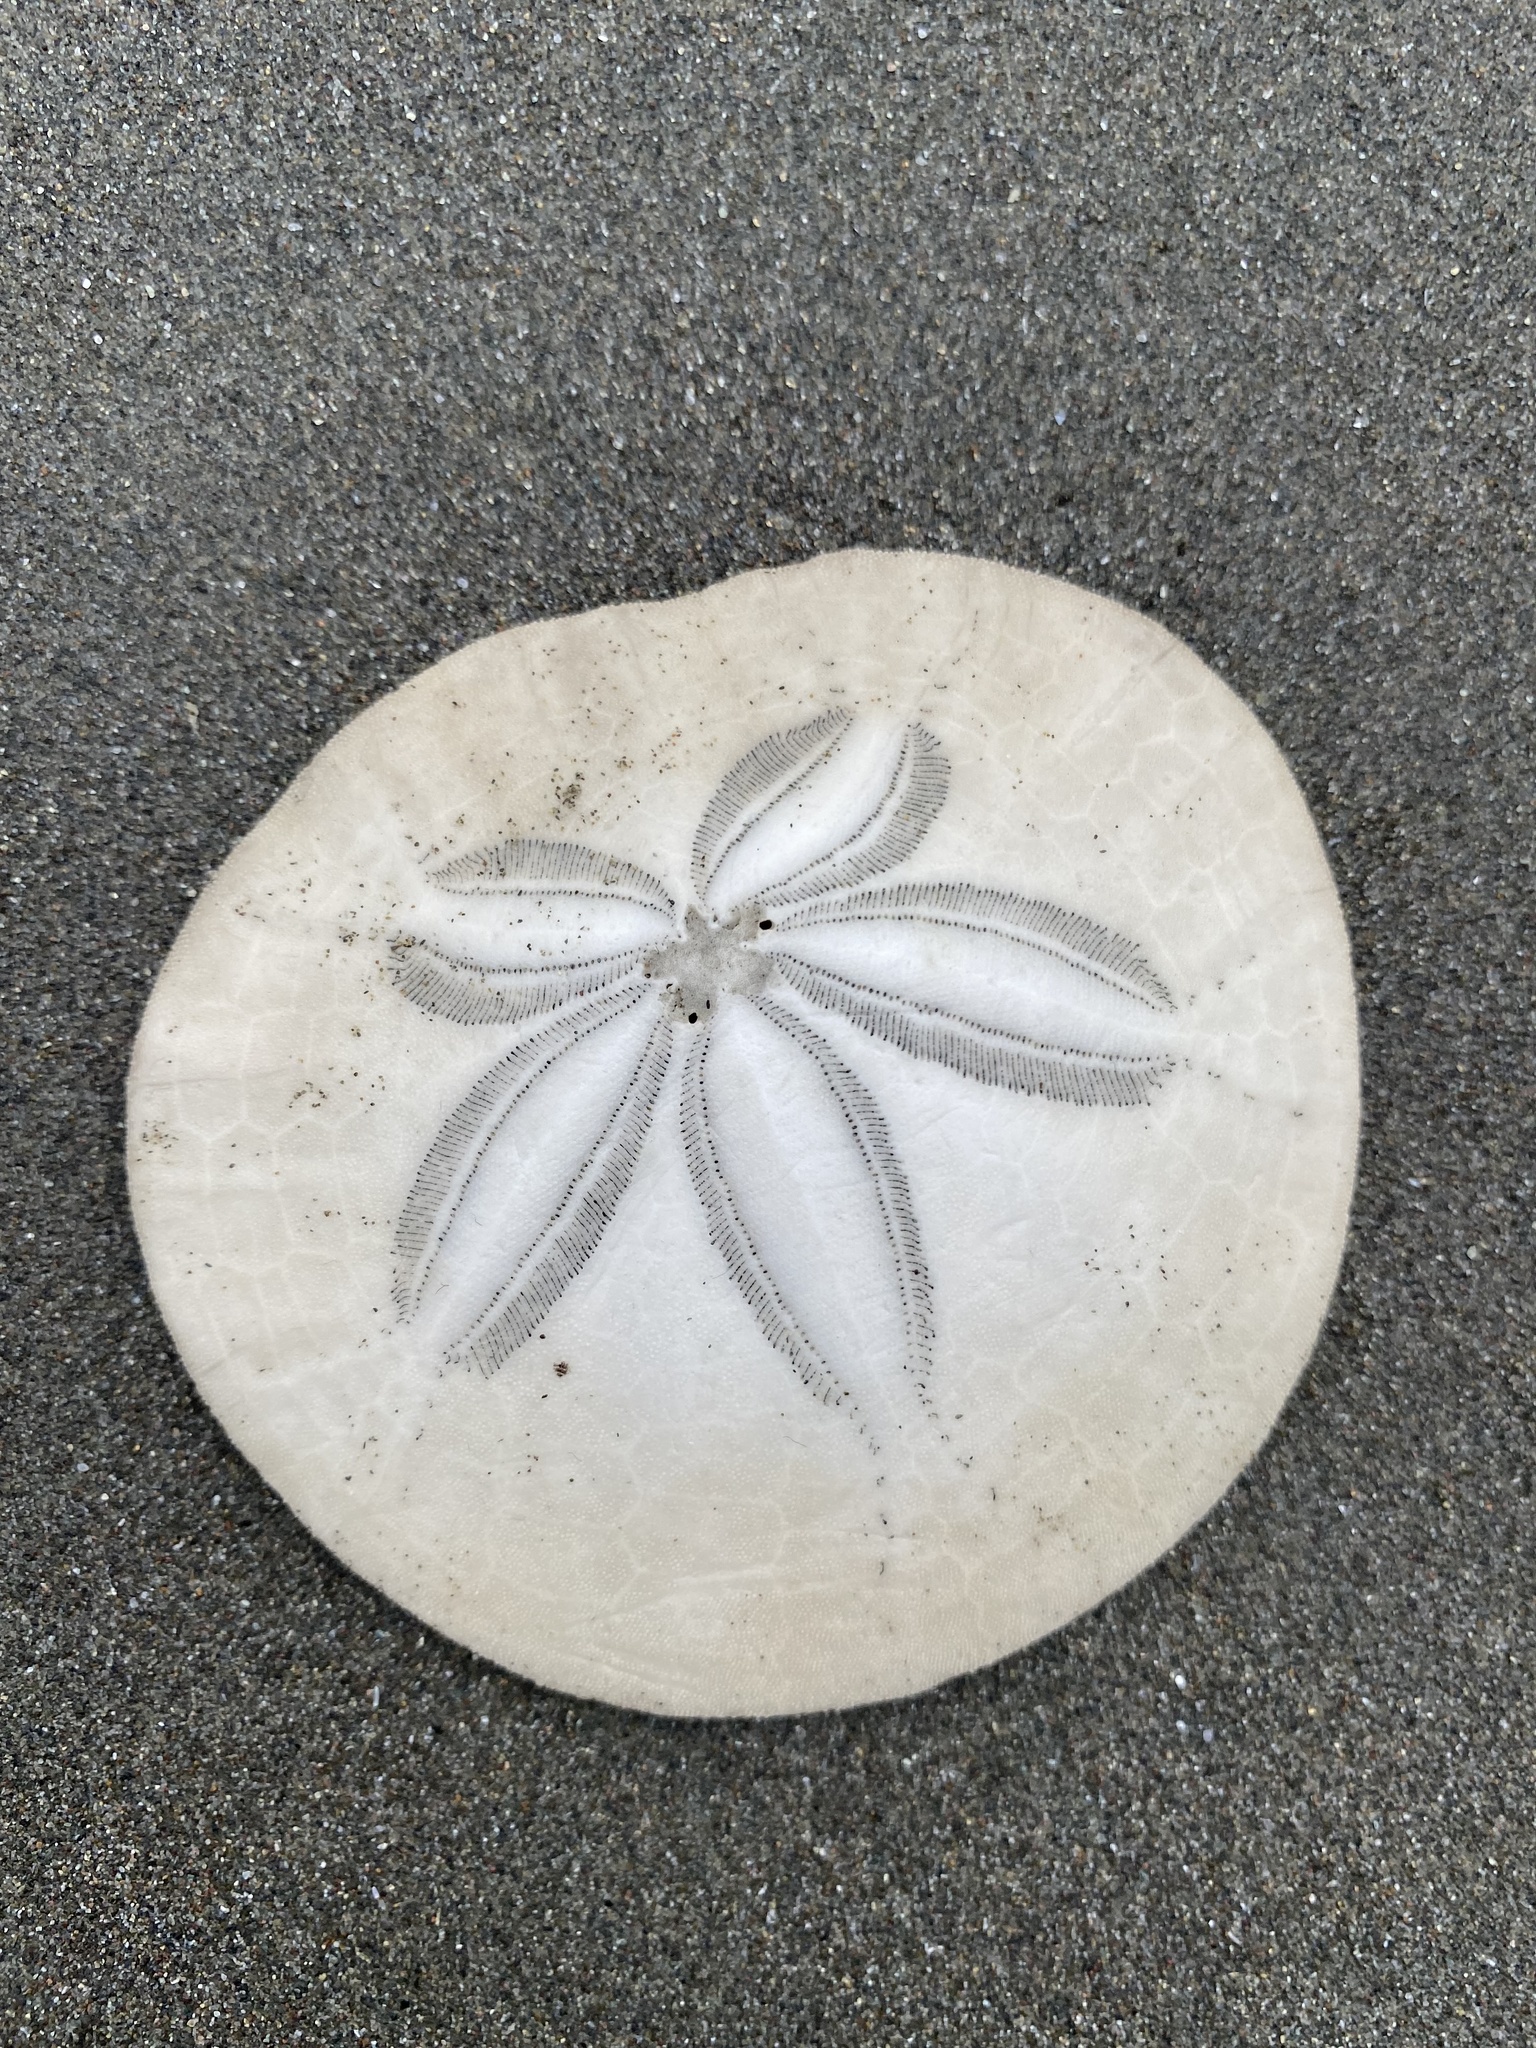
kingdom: Animalia
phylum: Echinodermata
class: Echinoidea
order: Echinolampadacea
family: Dendrasteridae
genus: Dendraster
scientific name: Dendraster excentricus
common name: Eccentric sand dollar sea urchin
